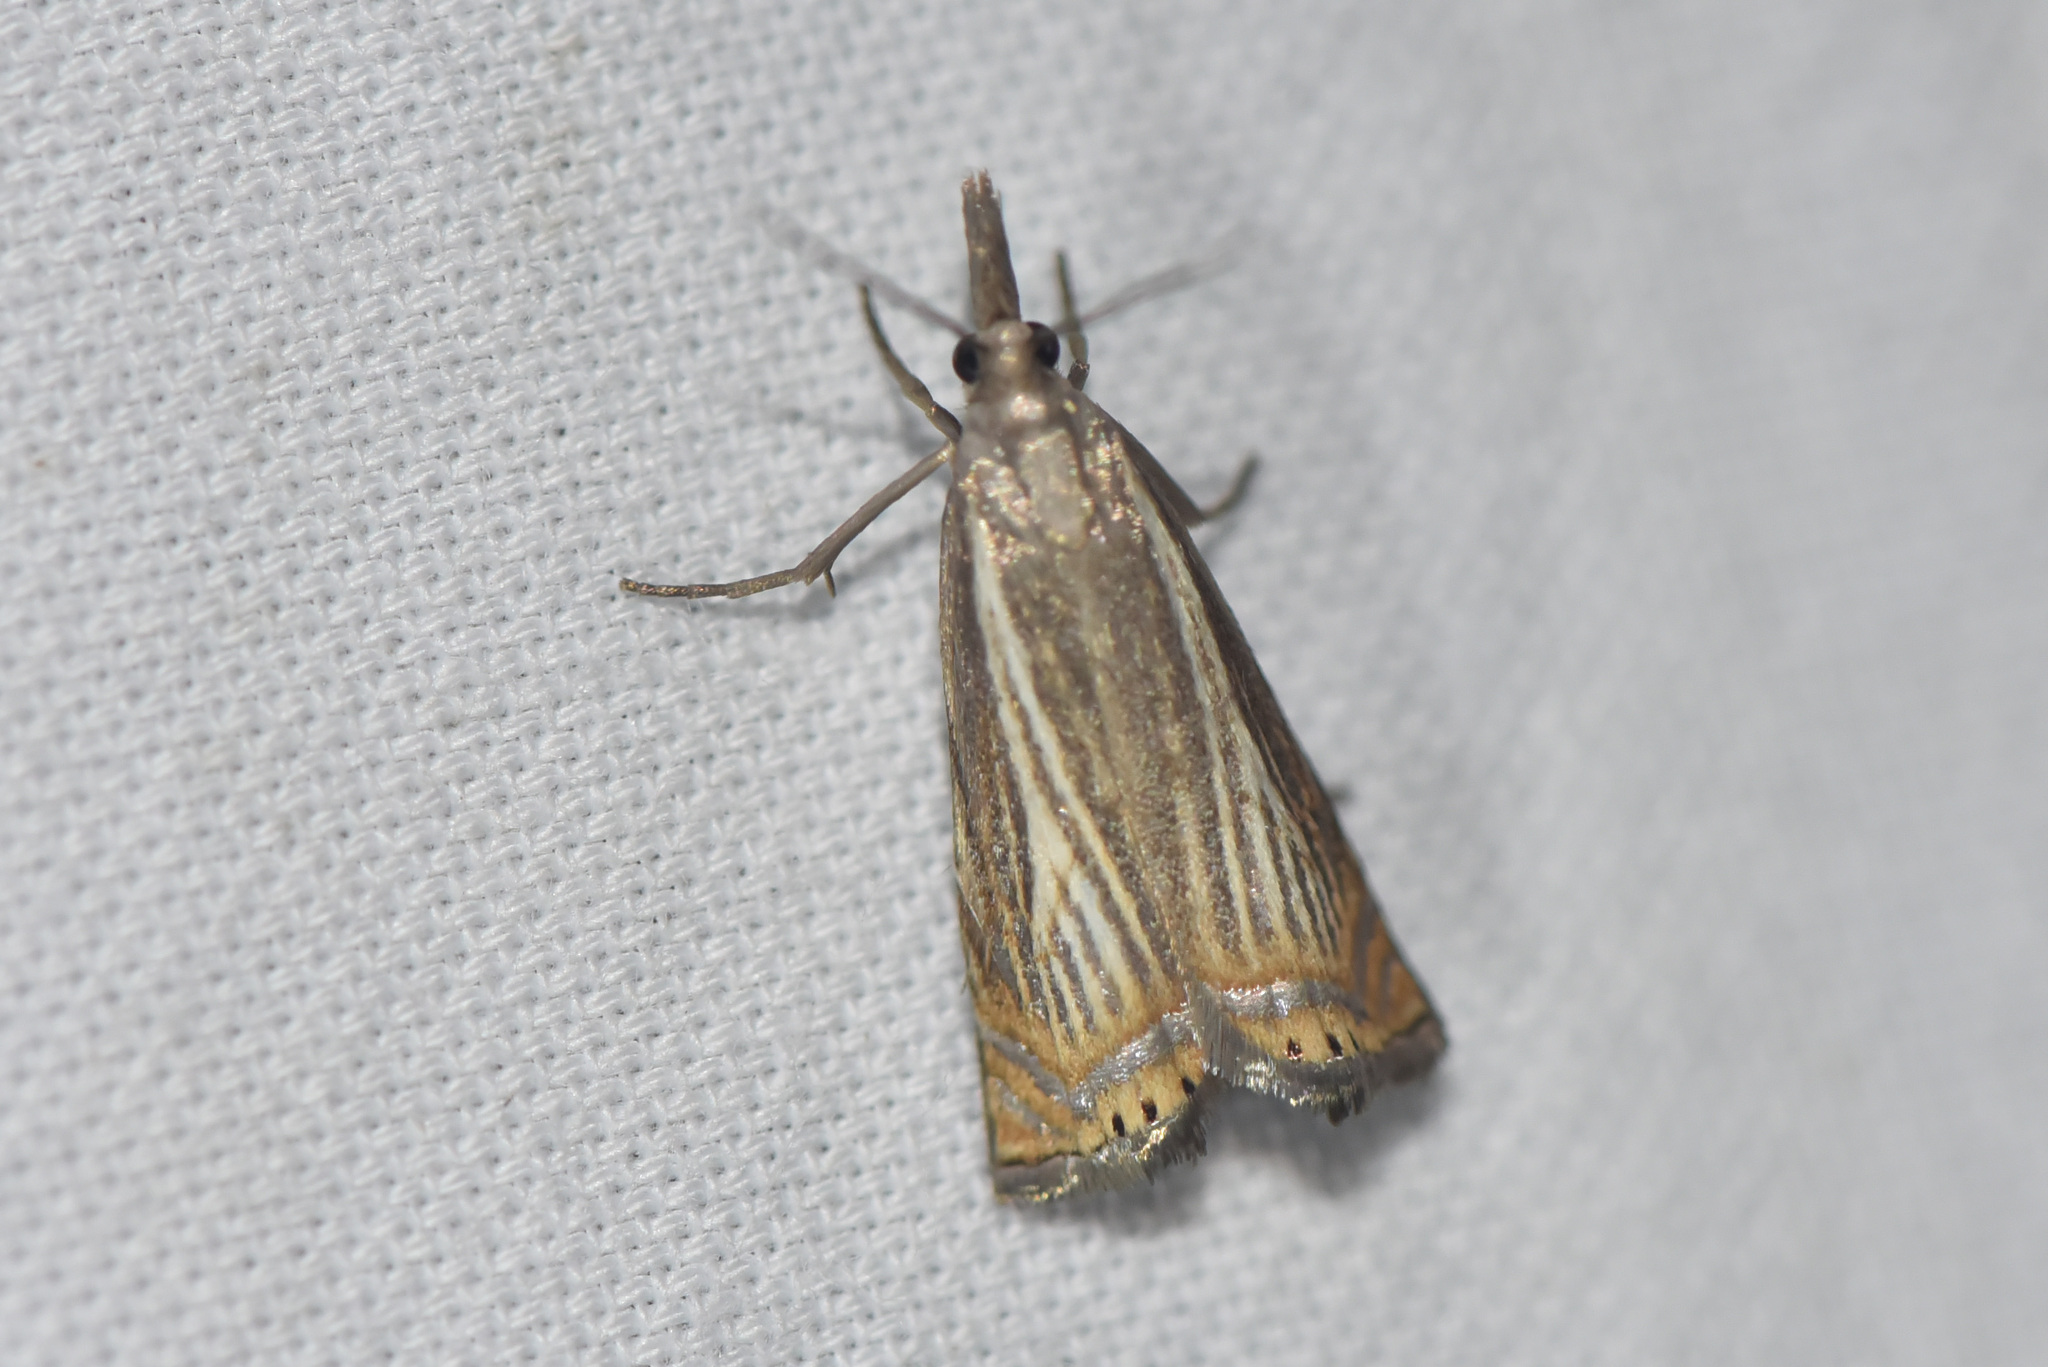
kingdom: Animalia
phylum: Arthropoda
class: Insecta
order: Lepidoptera
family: Crambidae
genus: Chrysoteuchia
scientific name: Chrysoteuchia topiarius
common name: Topiary grass-veneer
